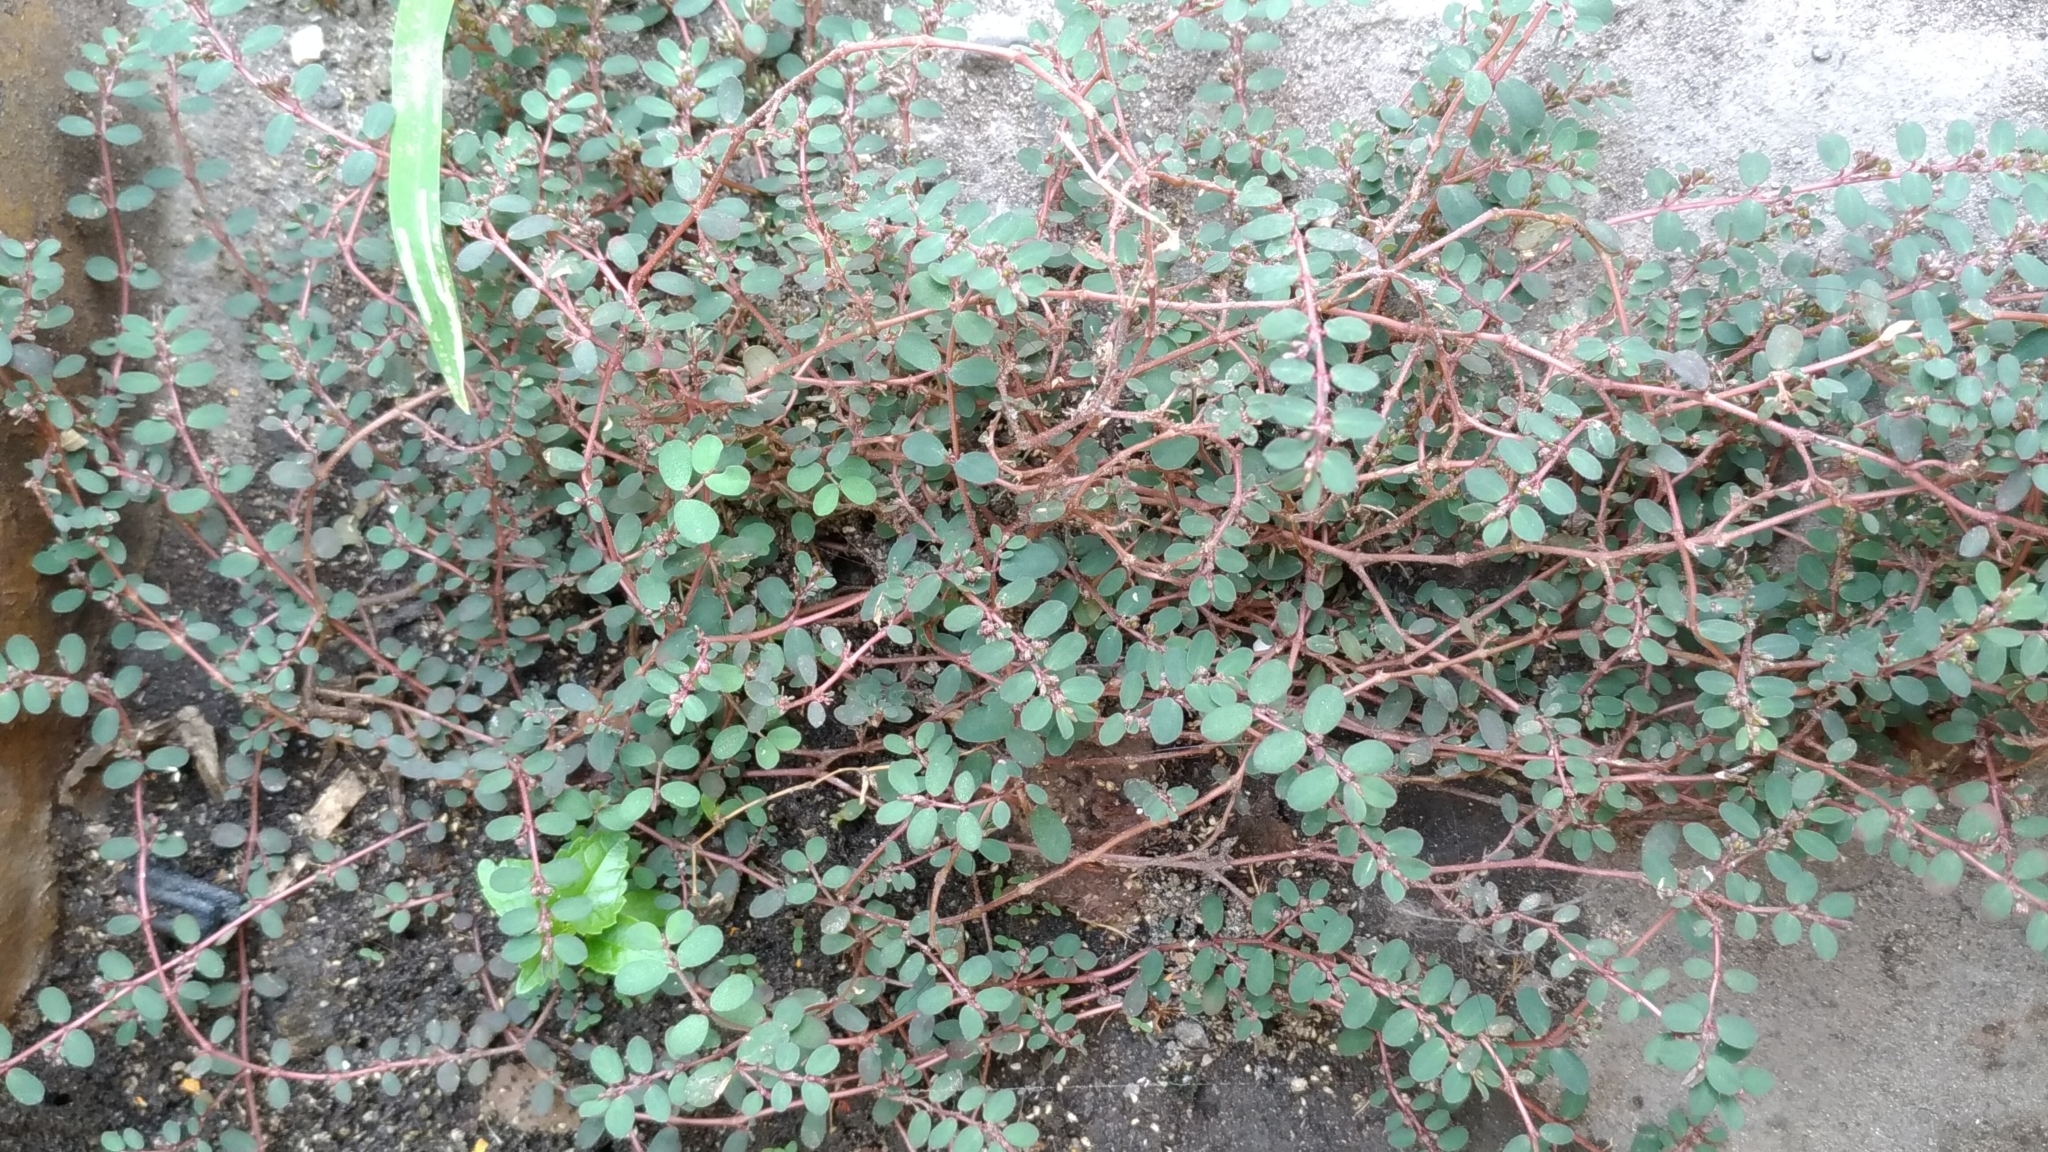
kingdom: Plantae
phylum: Tracheophyta
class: Magnoliopsida
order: Malpighiales
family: Euphorbiaceae
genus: Euphorbia
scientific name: Euphorbia prostrata
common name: Prostrate sandmat
